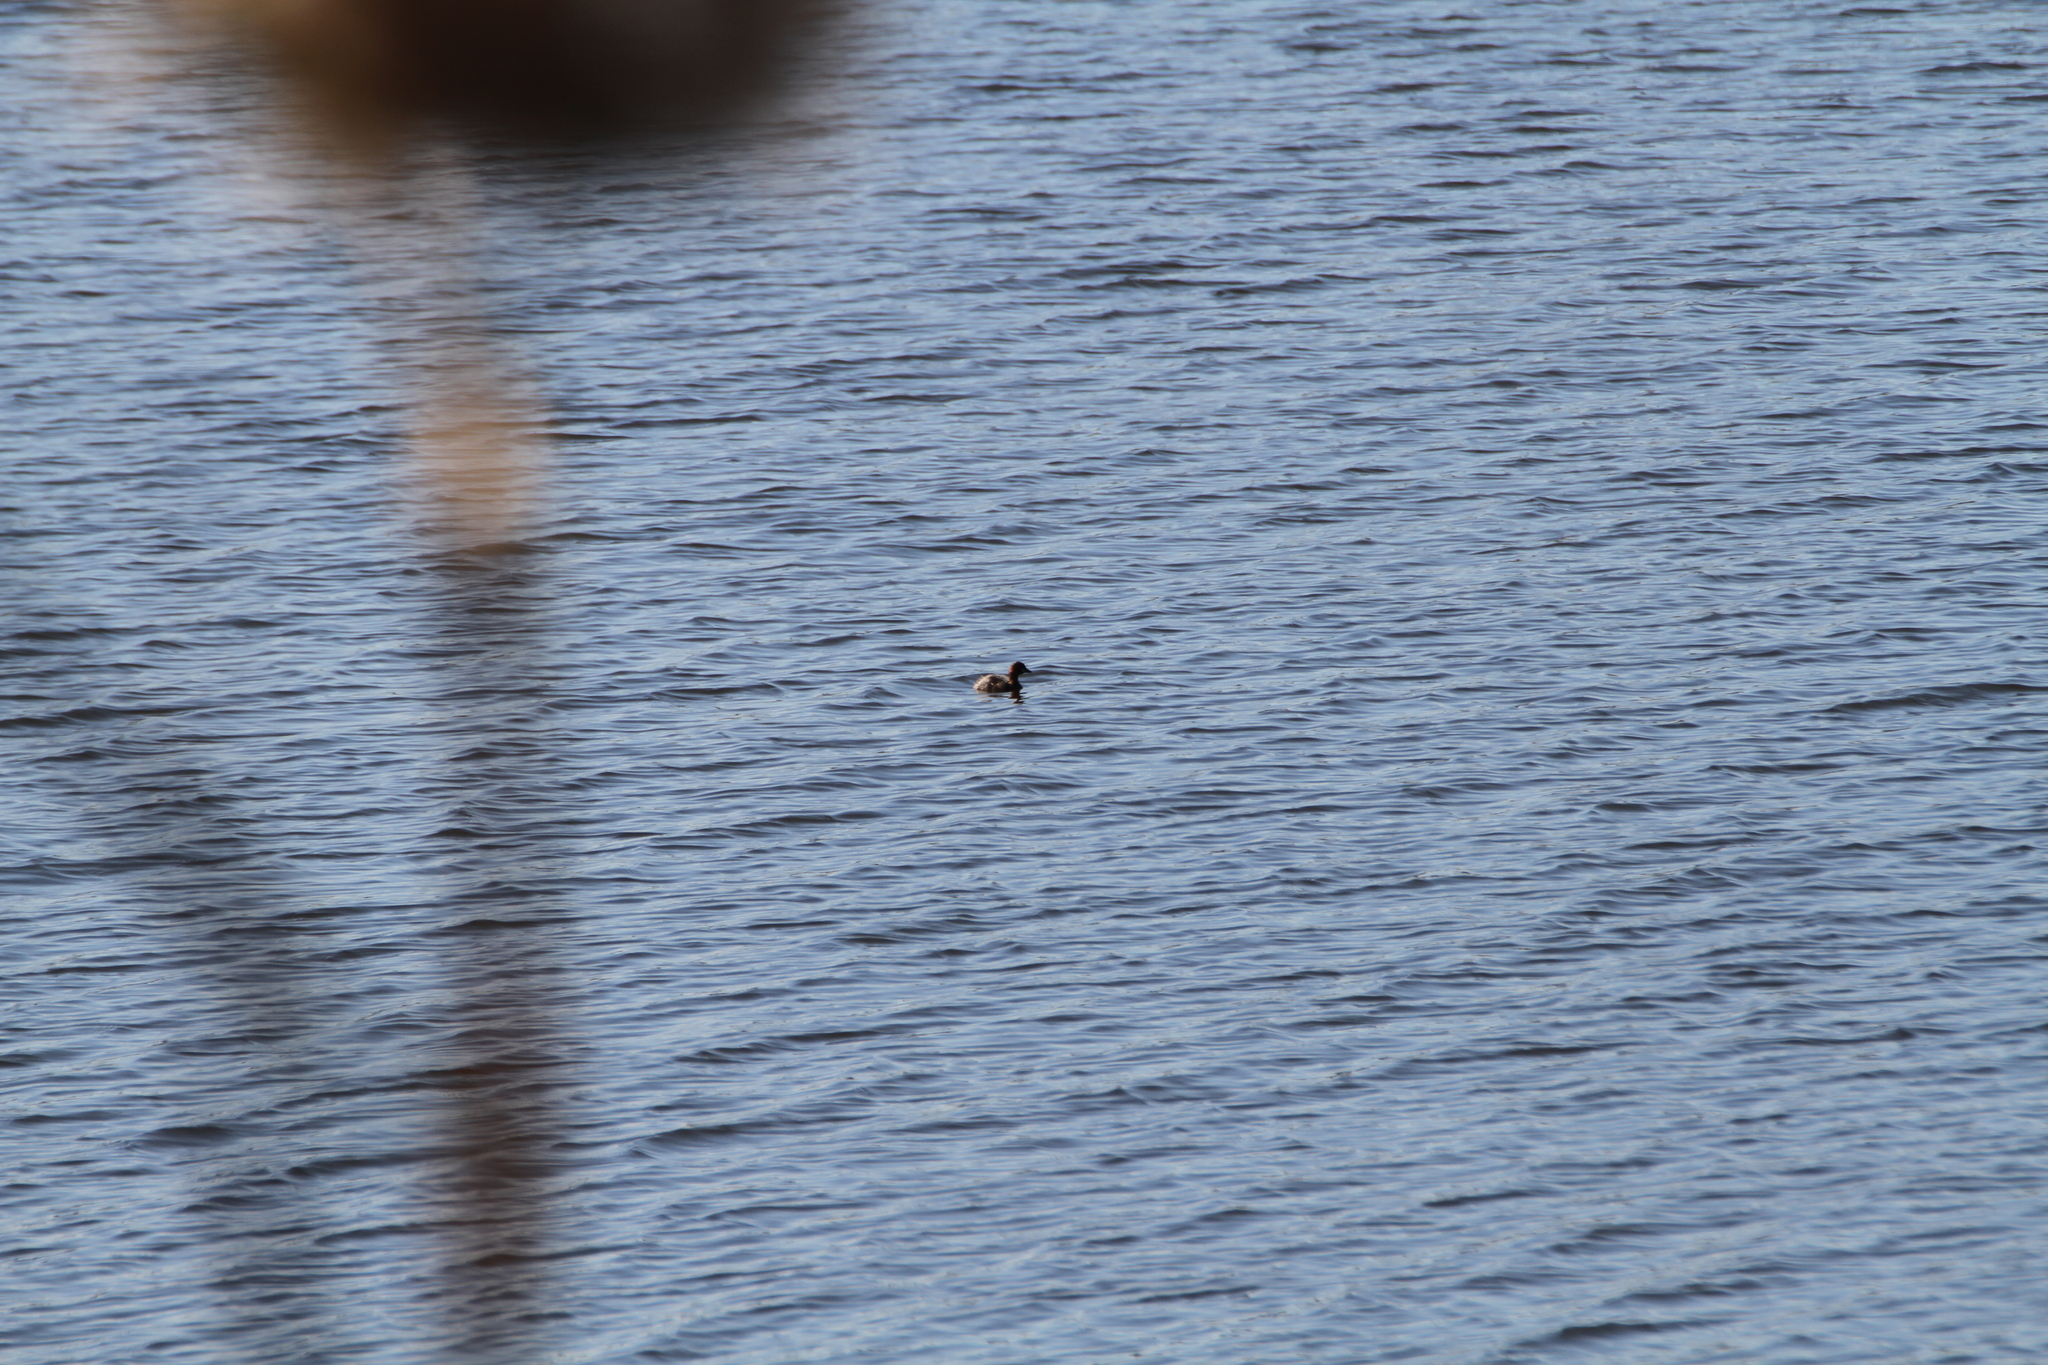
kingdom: Animalia
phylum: Chordata
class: Aves
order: Podicipediformes
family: Podicipedidae
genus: Tachybaptus
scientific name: Tachybaptus ruficollis
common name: Little grebe
